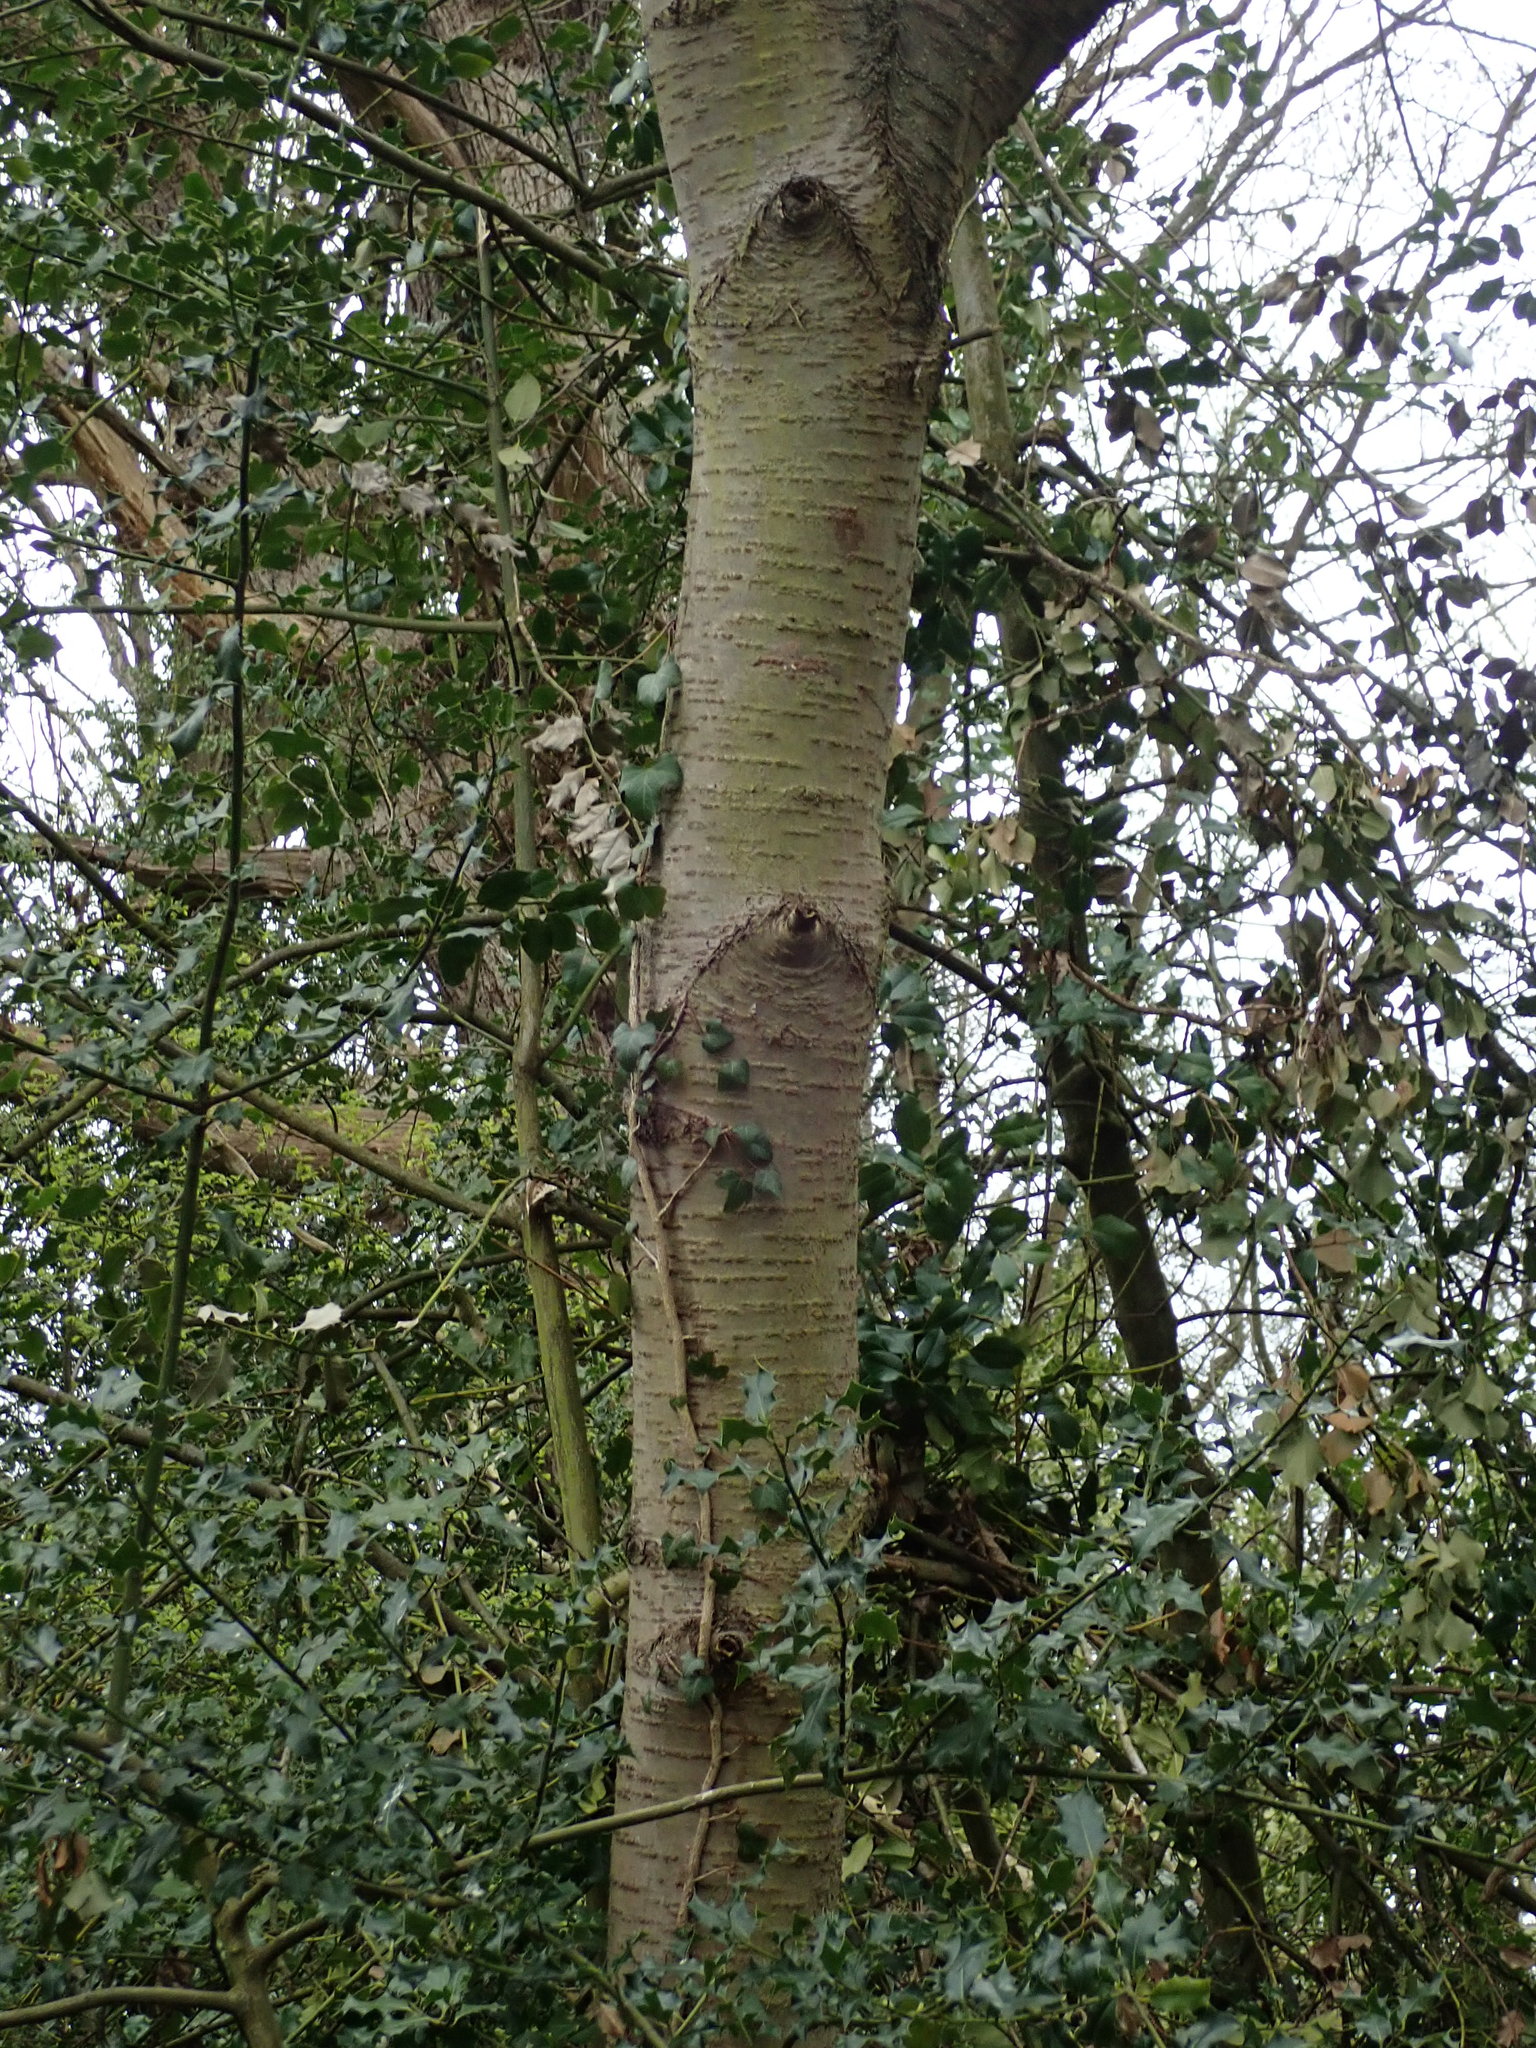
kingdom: Plantae
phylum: Tracheophyta
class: Magnoliopsida
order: Rosales
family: Rosaceae
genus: Prunus
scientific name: Prunus avium
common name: Sweet cherry
